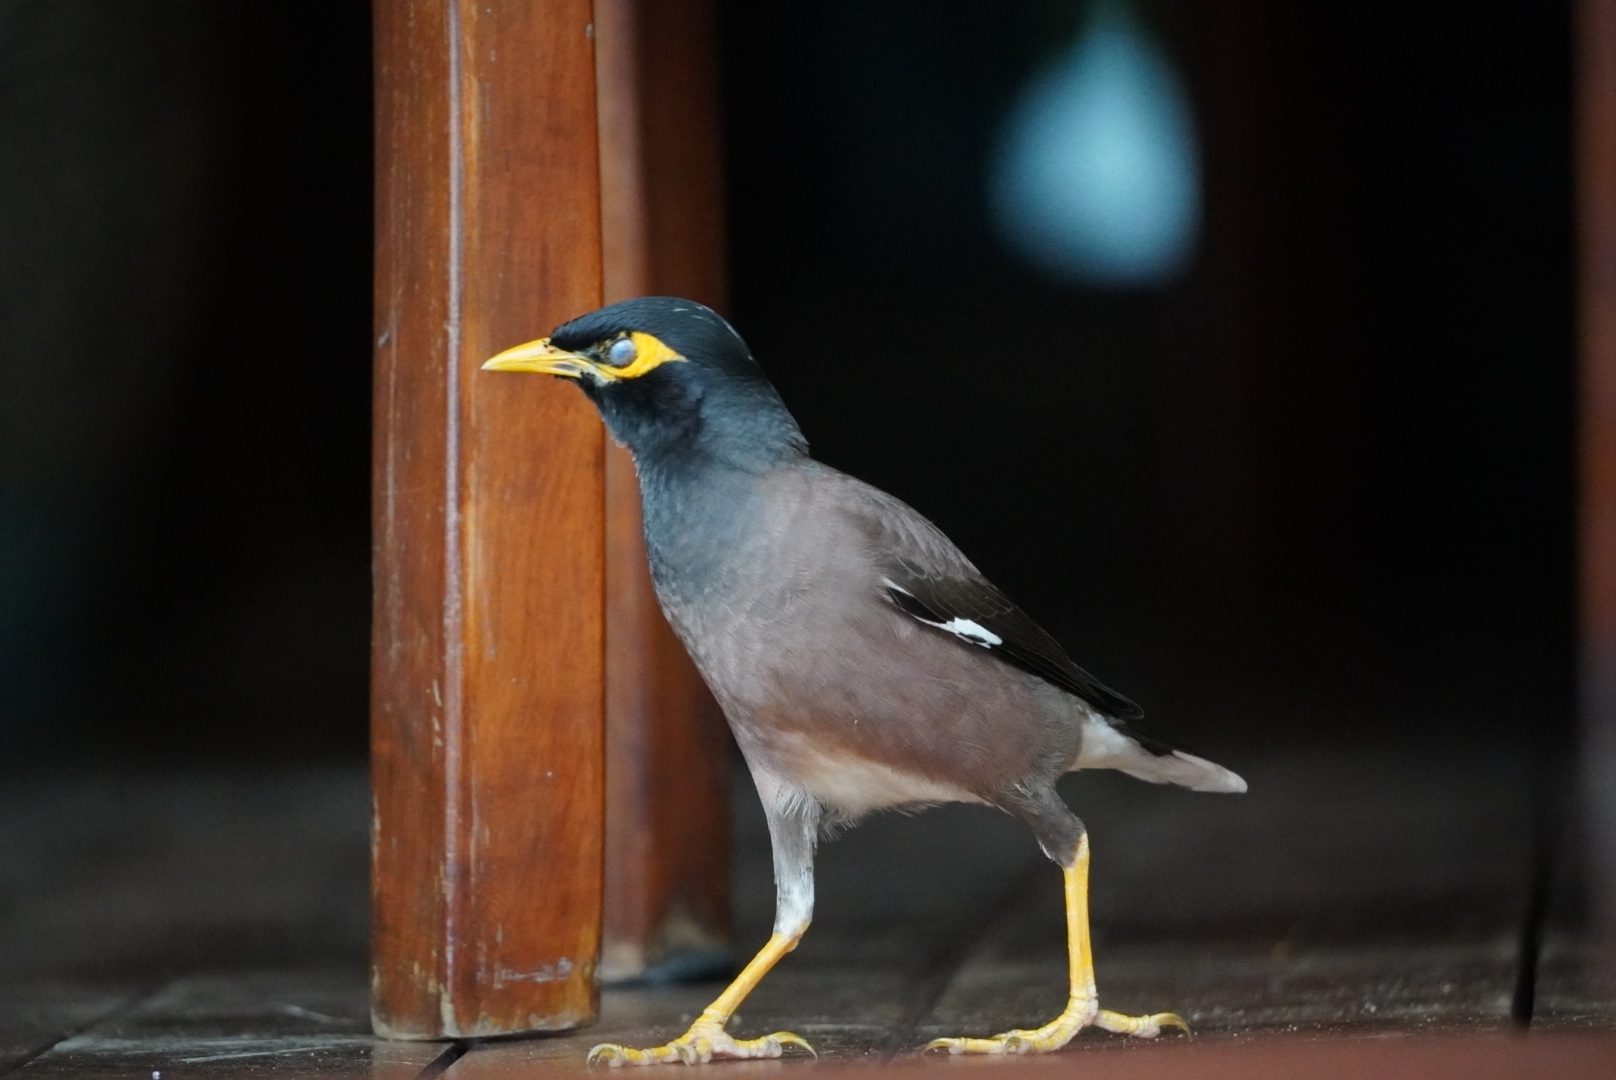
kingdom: Animalia
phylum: Chordata
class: Aves
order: Passeriformes
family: Sturnidae
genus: Acridotheres
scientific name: Acridotheres tristis
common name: Common myna
